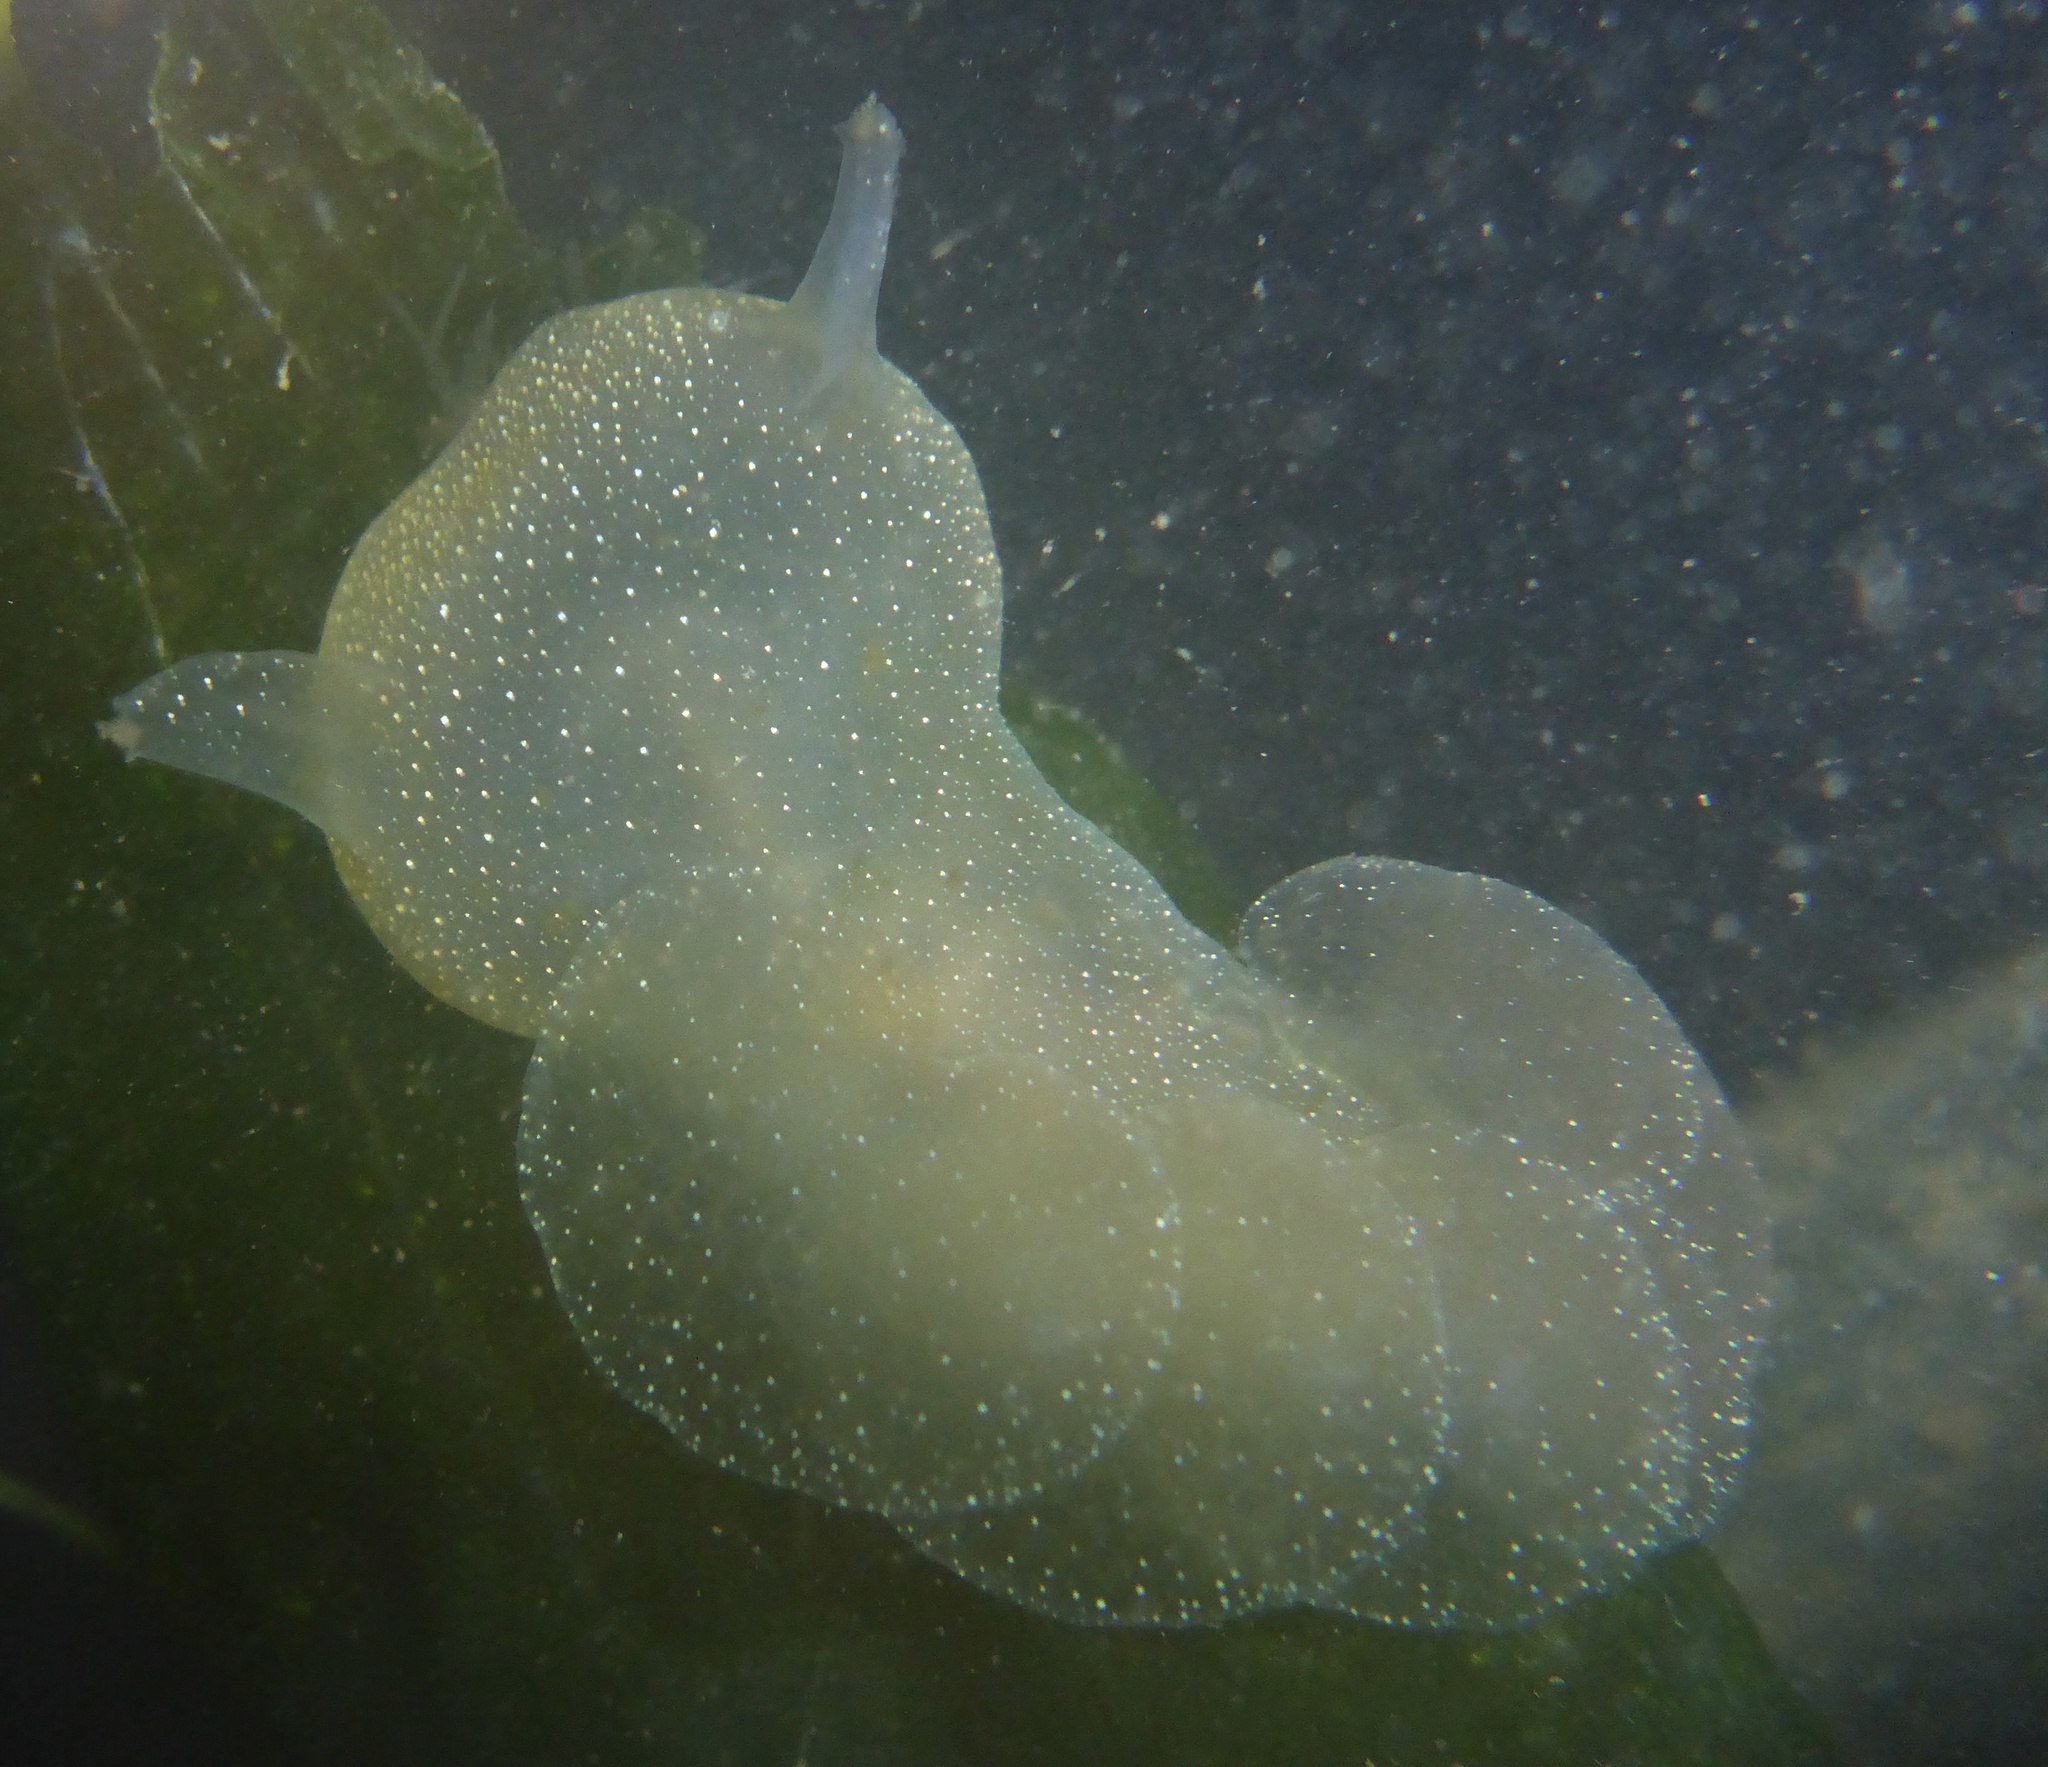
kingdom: Animalia
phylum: Mollusca
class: Gastropoda
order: Nudibranchia
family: Tethydidae
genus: Melibe
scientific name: Melibe leonina
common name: Lion nudibranch
